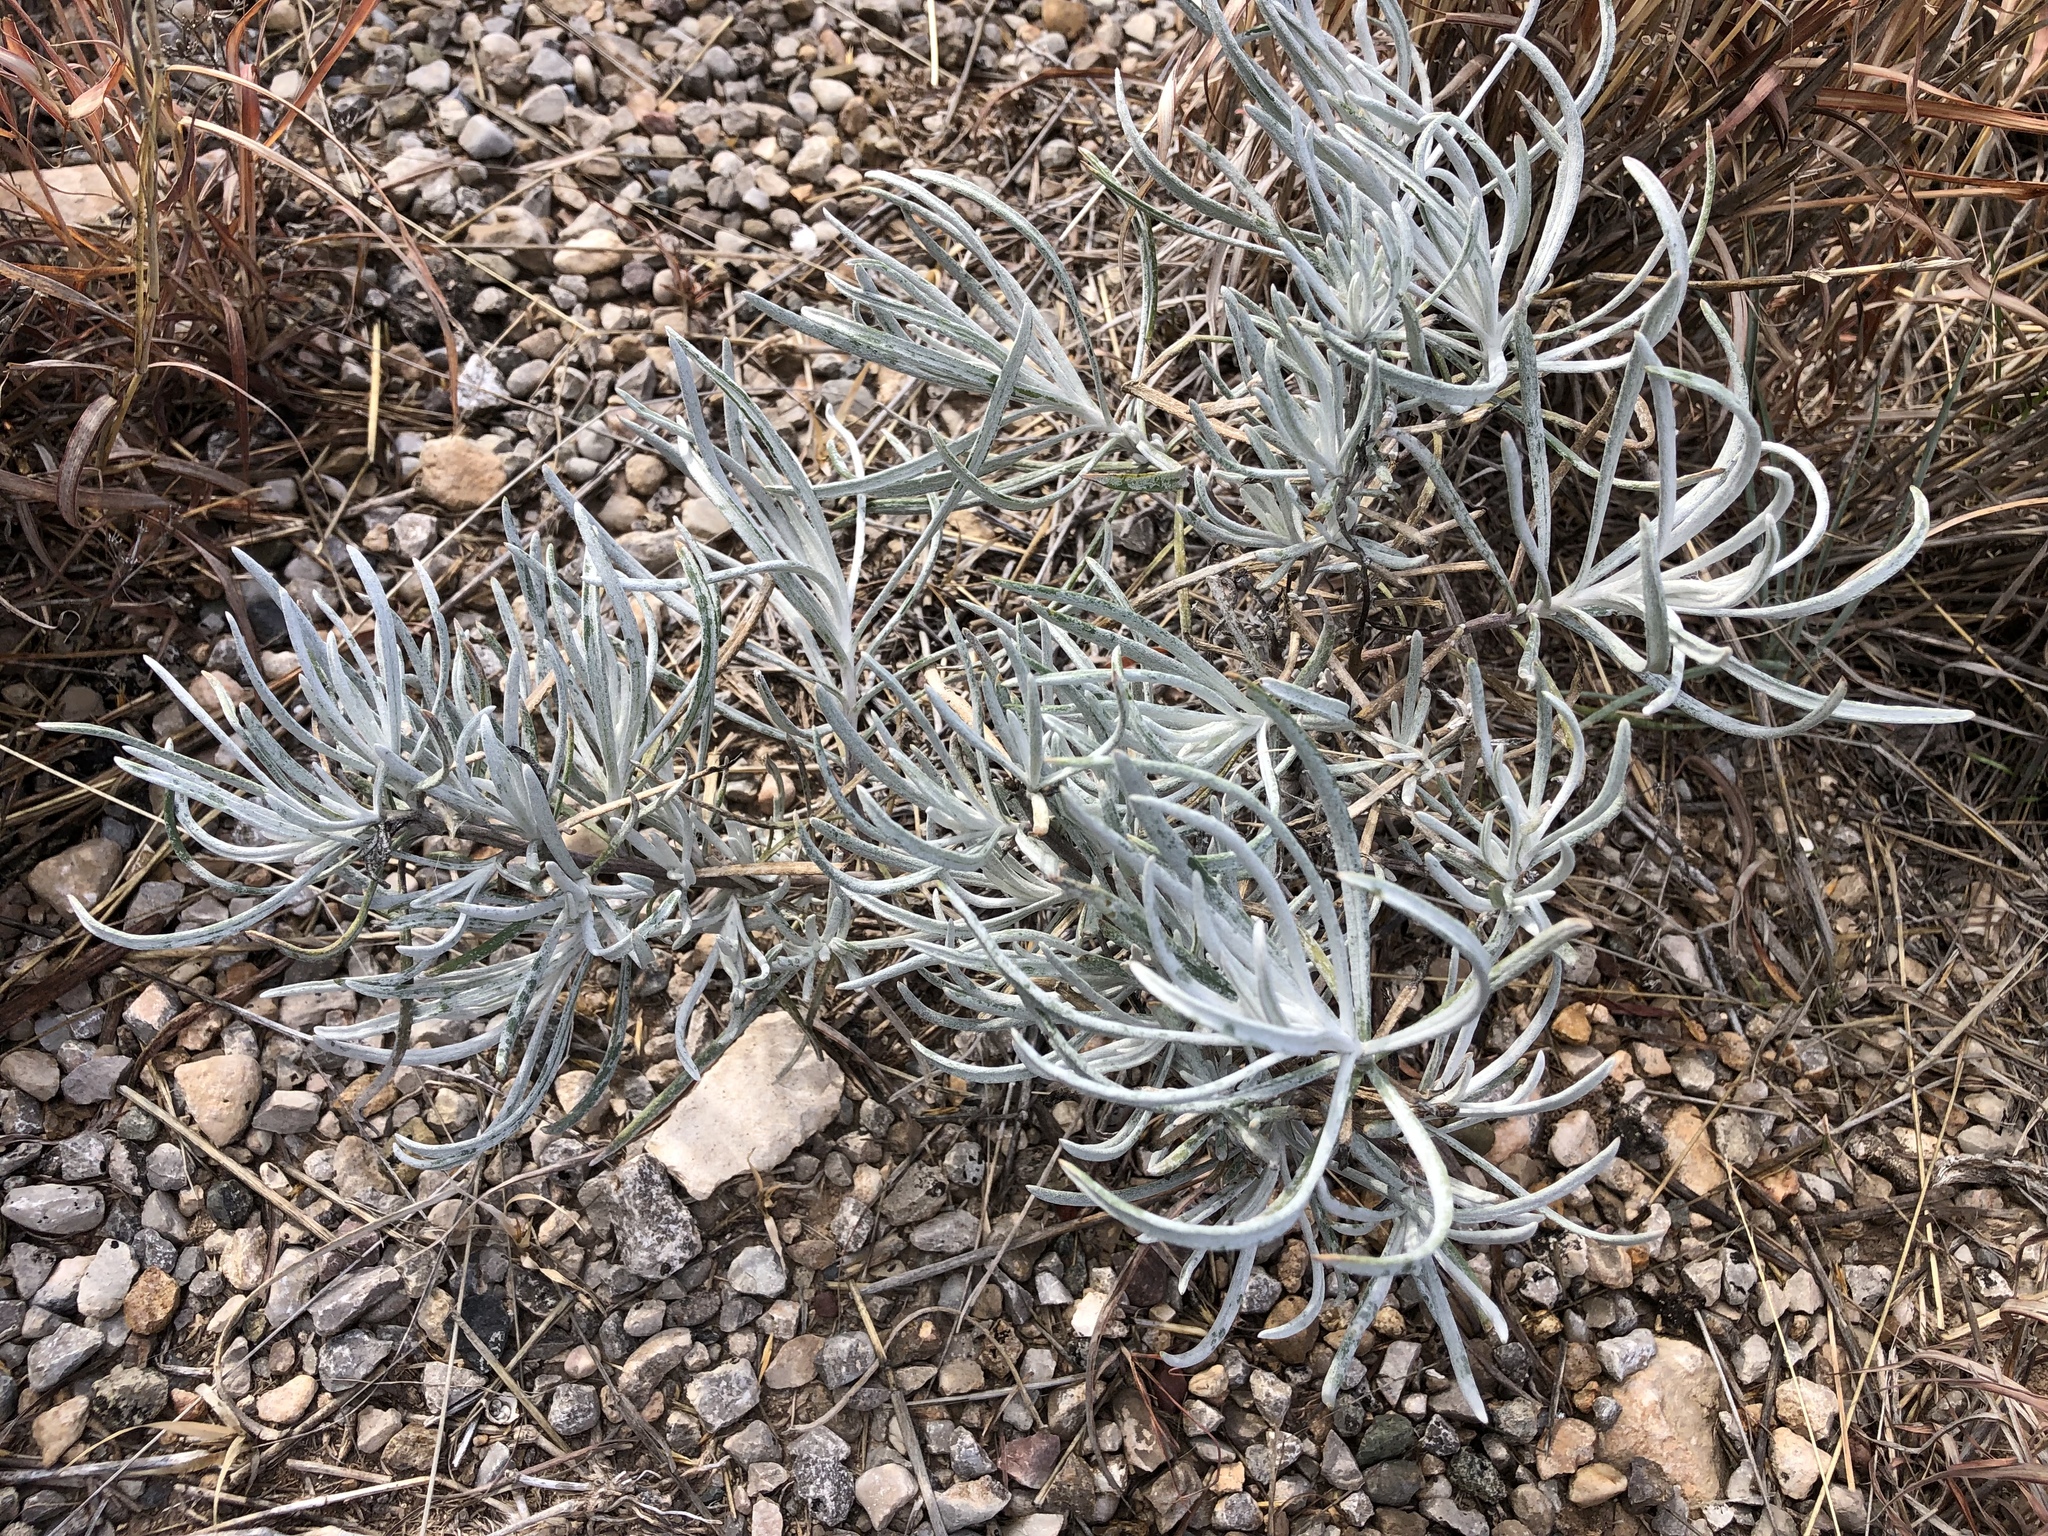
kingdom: Plantae
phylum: Tracheophyta
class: Magnoliopsida
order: Asterales
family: Asteraceae
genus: Senecio
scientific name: Senecio flaccidus
